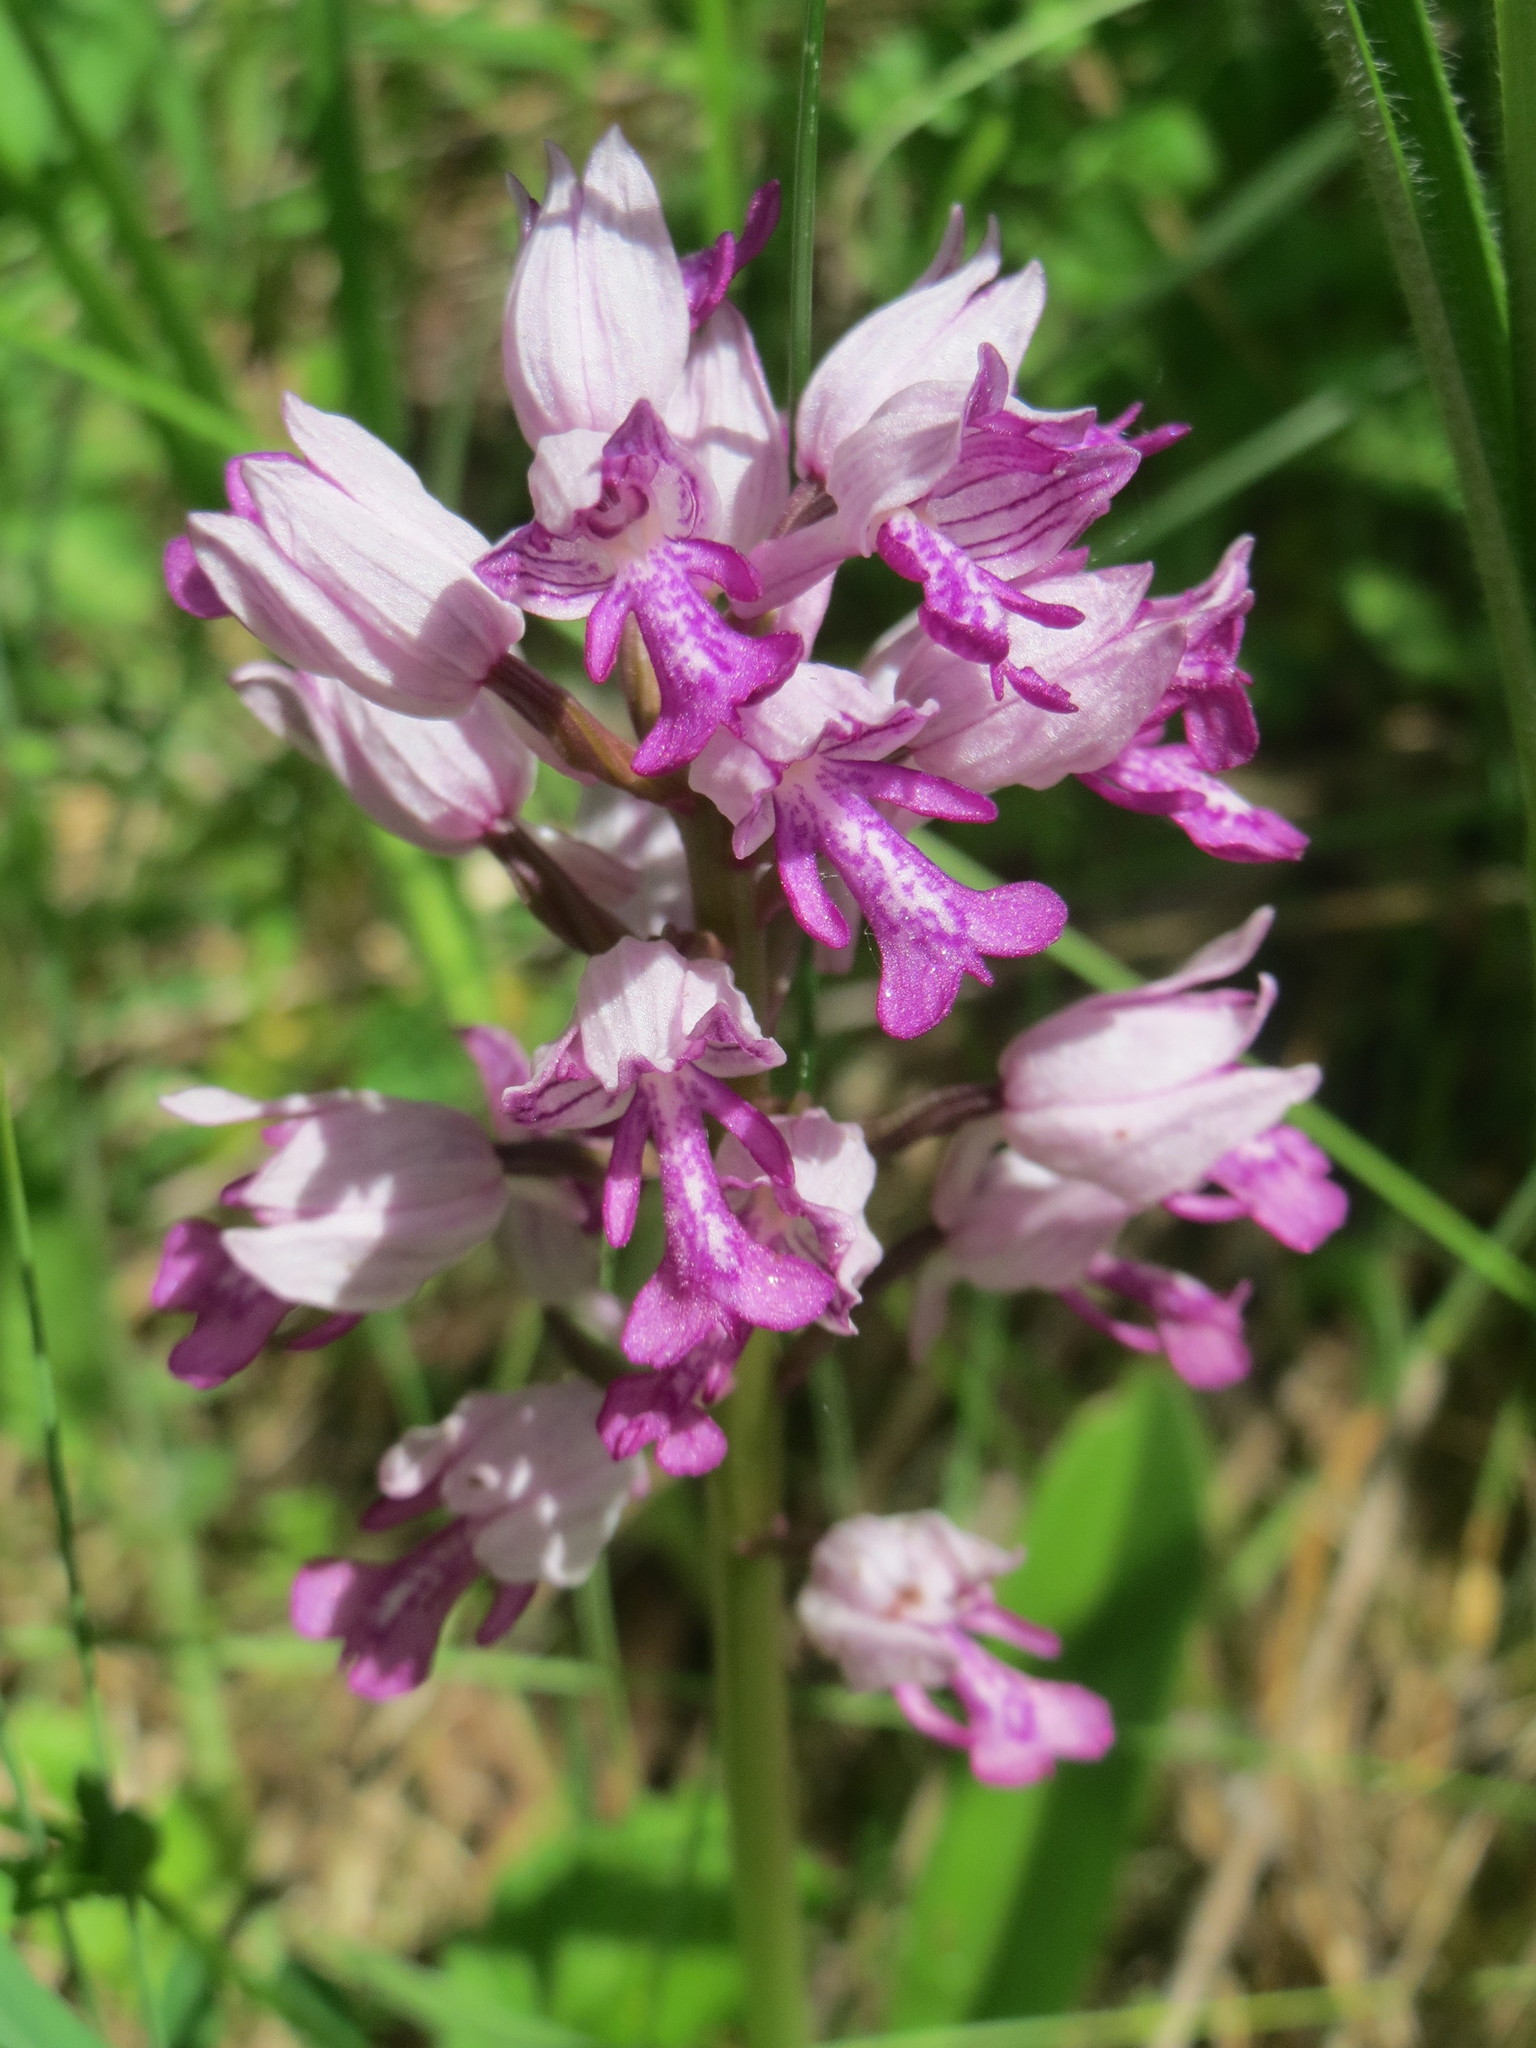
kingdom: Plantae
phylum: Tracheophyta
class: Liliopsida
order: Asparagales
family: Orchidaceae
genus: Orchis
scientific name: Orchis militaris
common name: Military orchid
